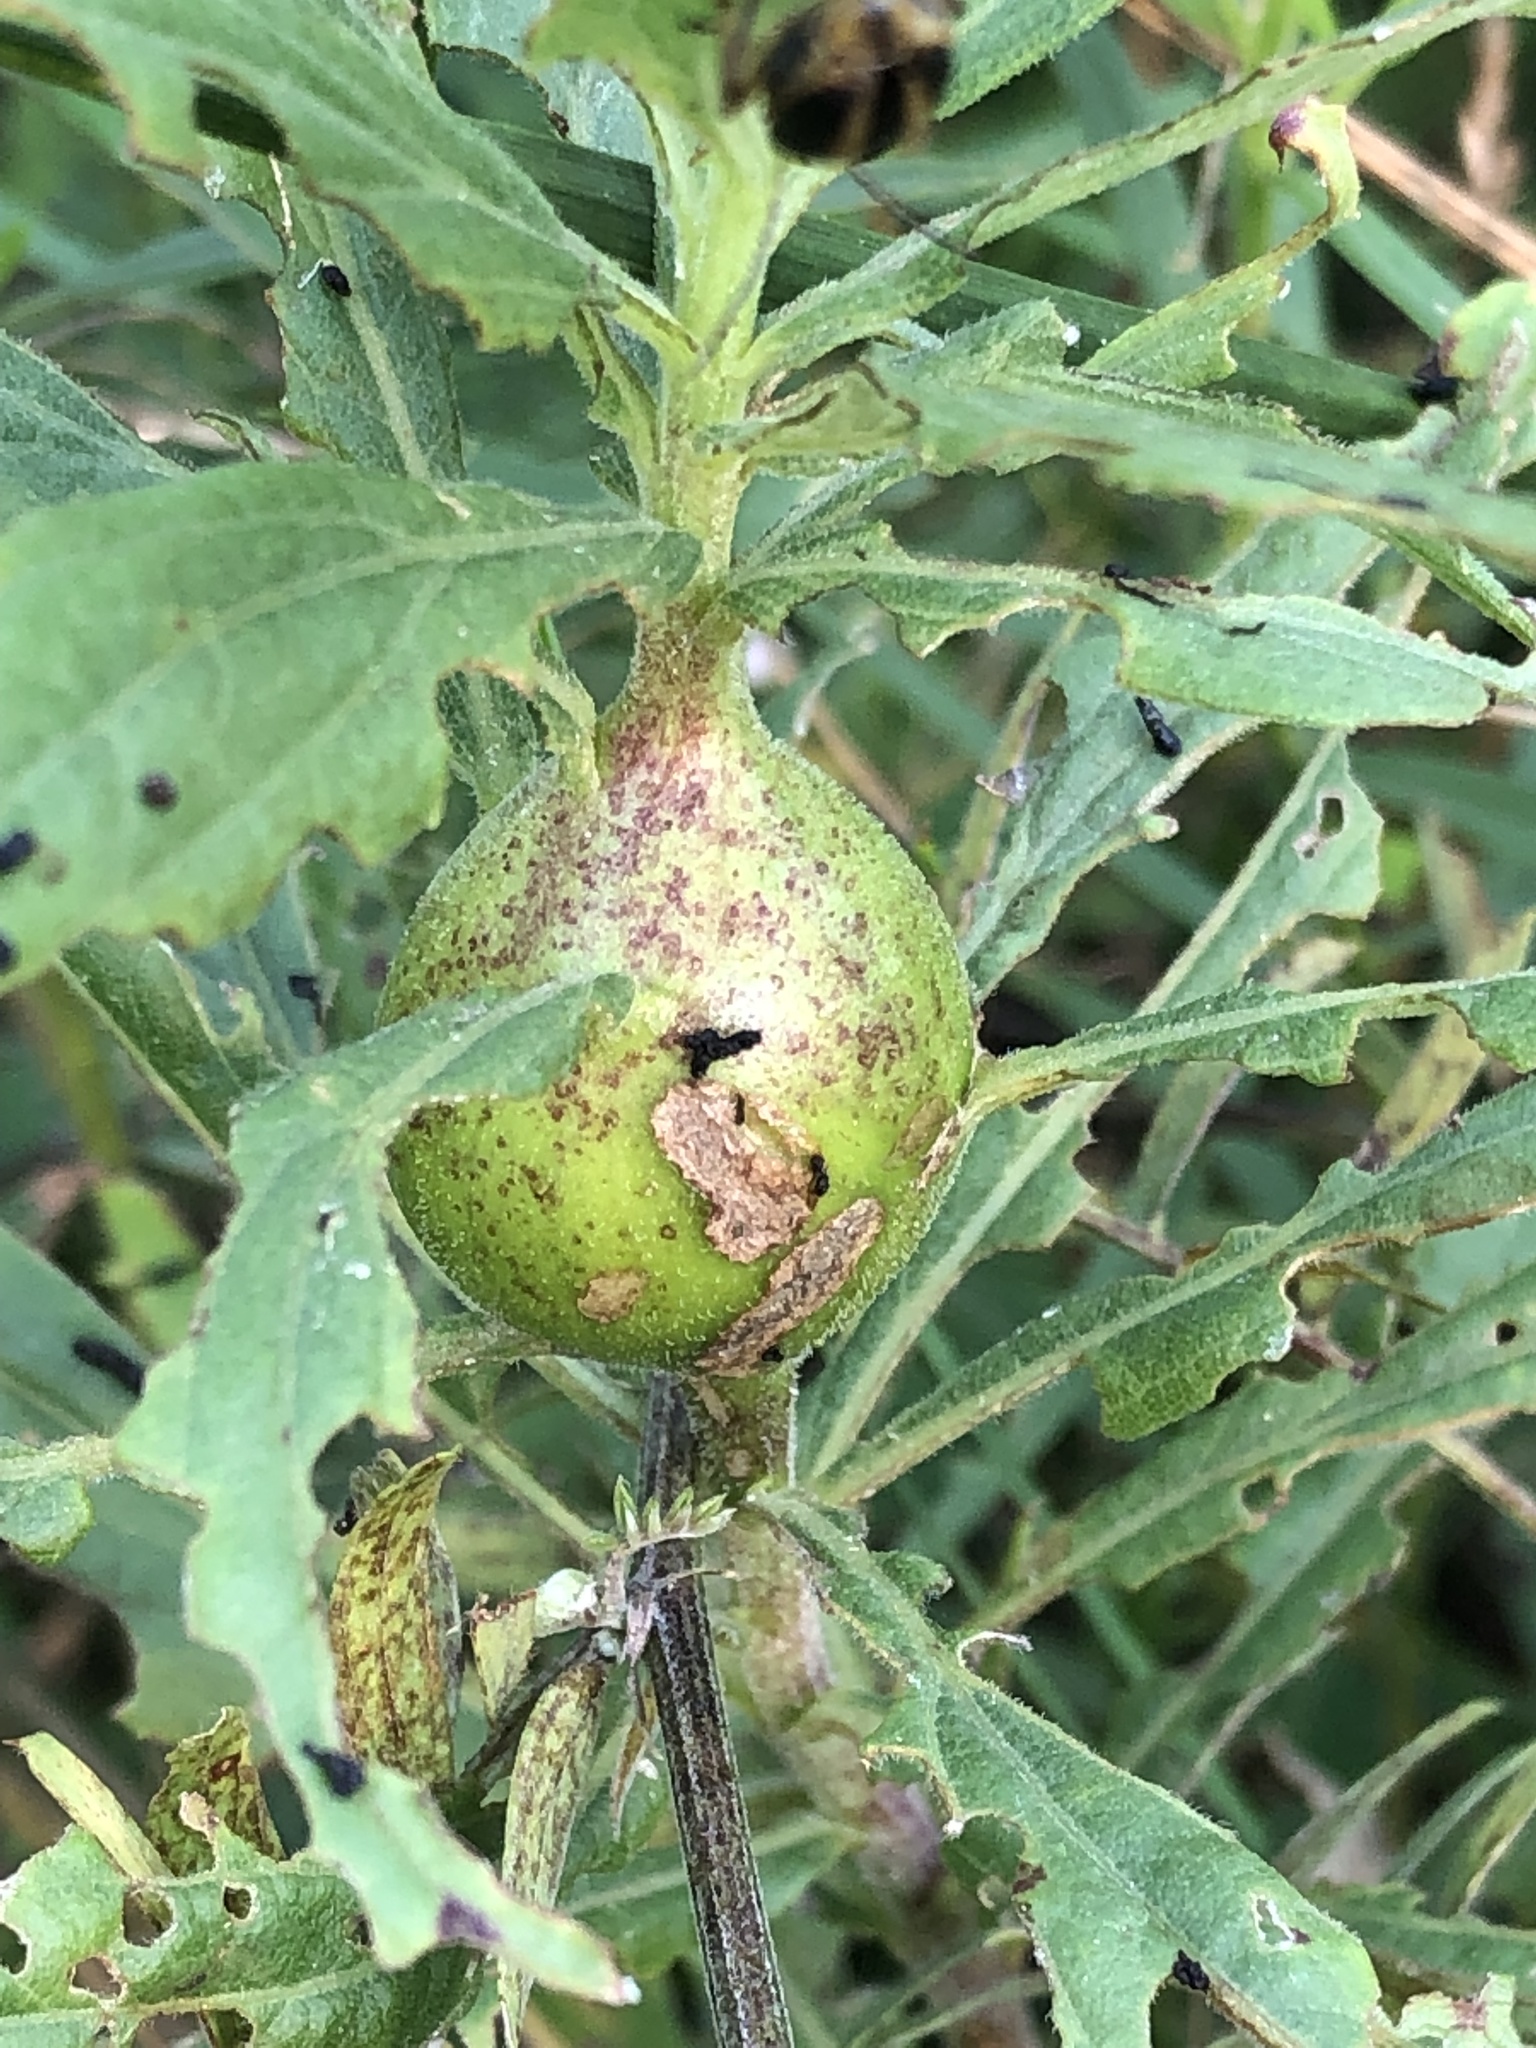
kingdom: Animalia
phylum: Arthropoda
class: Insecta
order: Diptera
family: Tephritidae
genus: Eurosta
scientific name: Eurosta solidaginis
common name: Goldenrod gall fly
